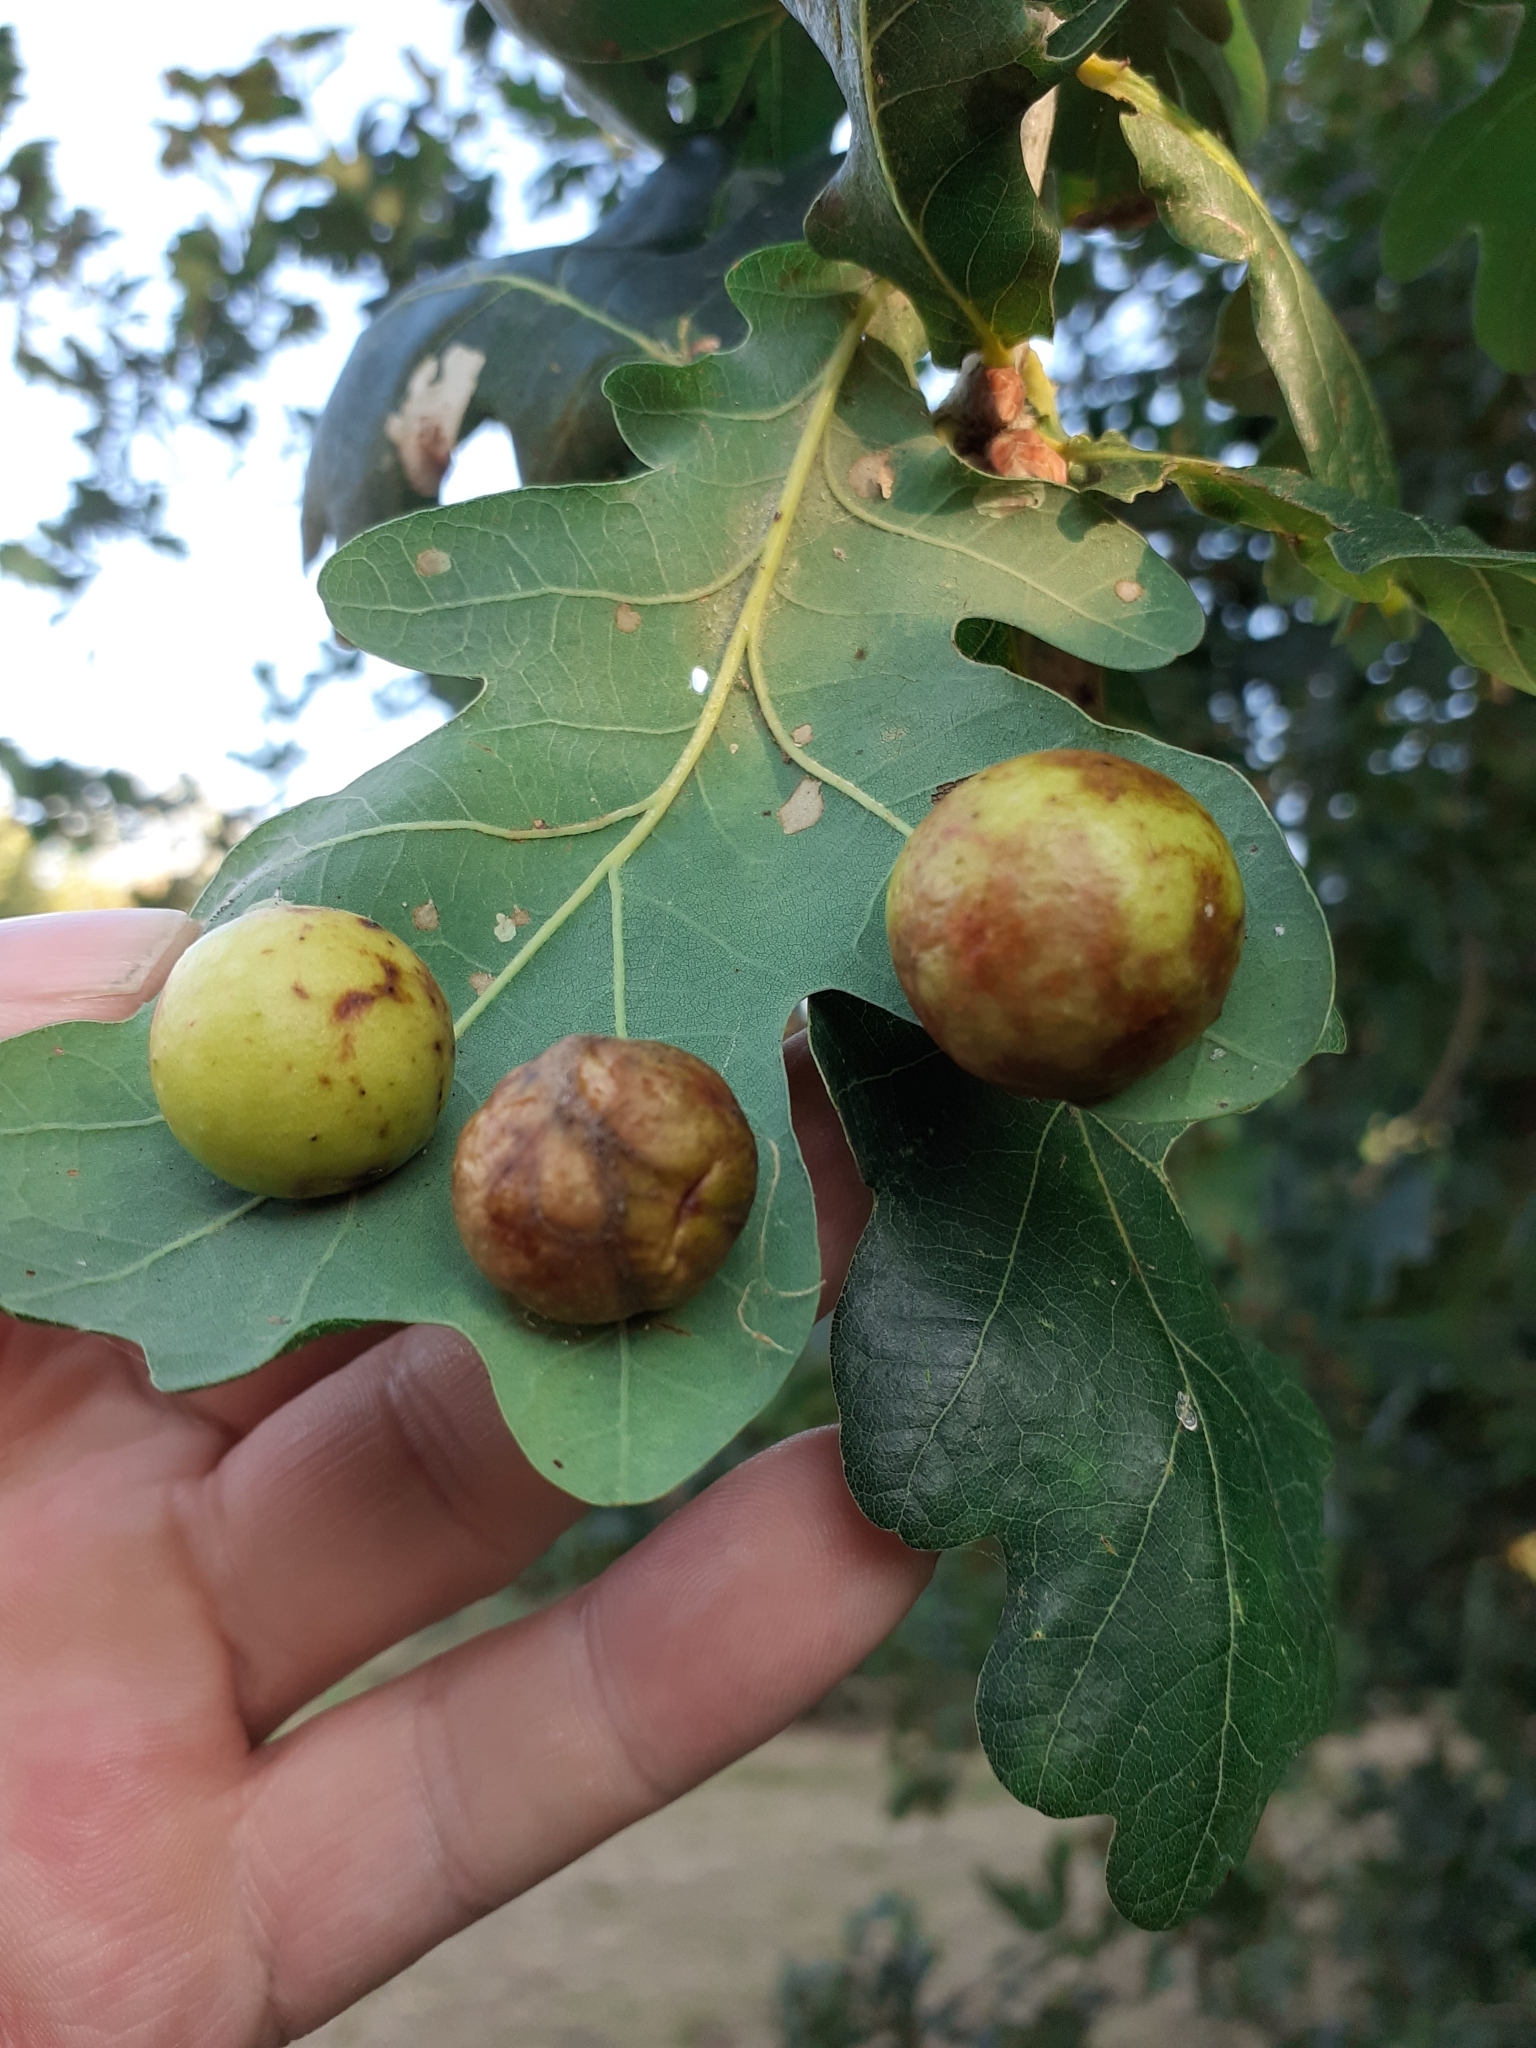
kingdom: Animalia
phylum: Arthropoda
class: Insecta
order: Hymenoptera
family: Cynipidae
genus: Cynips
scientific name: Cynips quercusfolii
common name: Cherry gall
